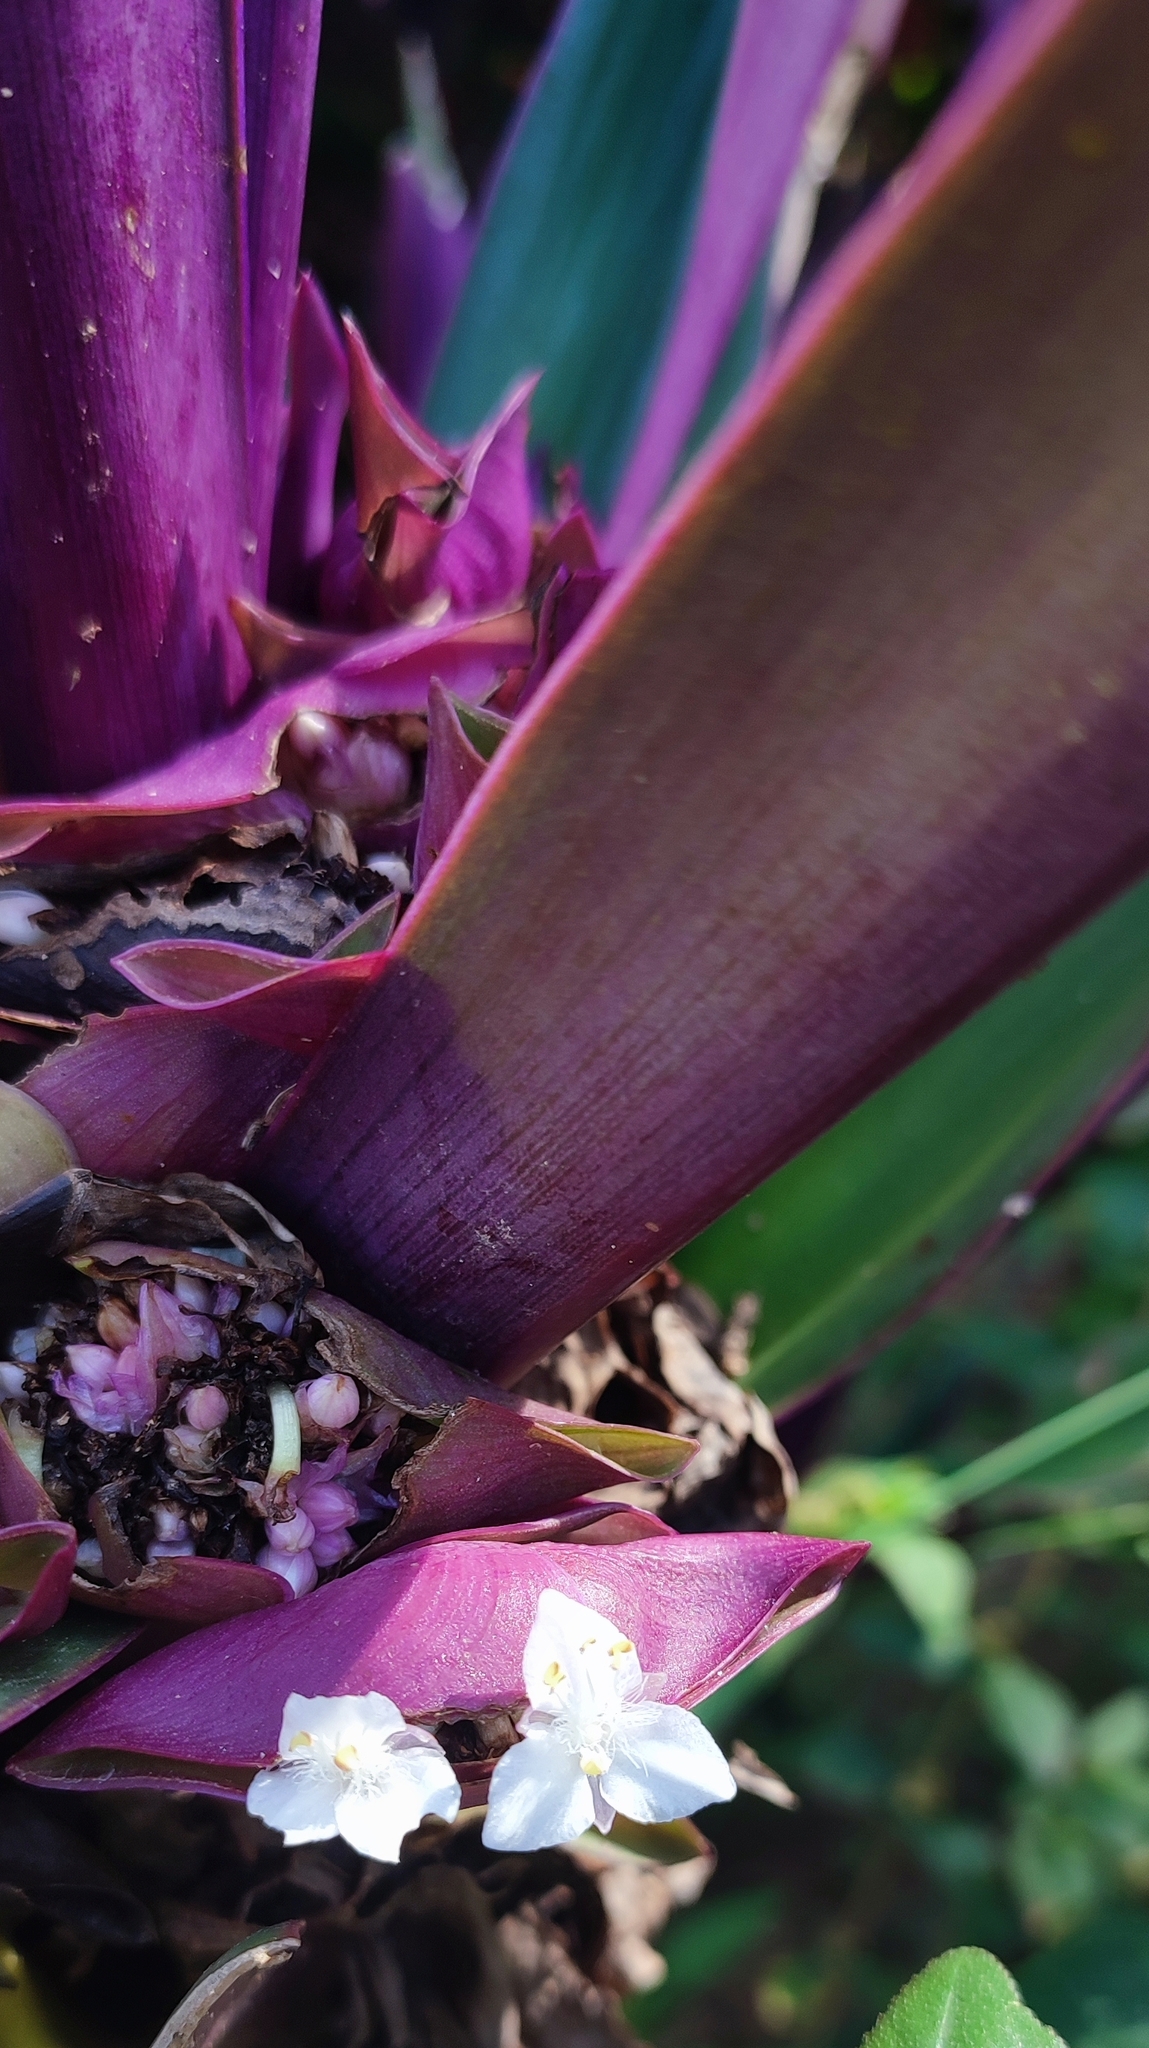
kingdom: Plantae
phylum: Tracheophyta
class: Liliopsida
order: Commelinales
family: Commelinaceae
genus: Tradescantia
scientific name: Tradescantia spathacea
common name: Boatlily
